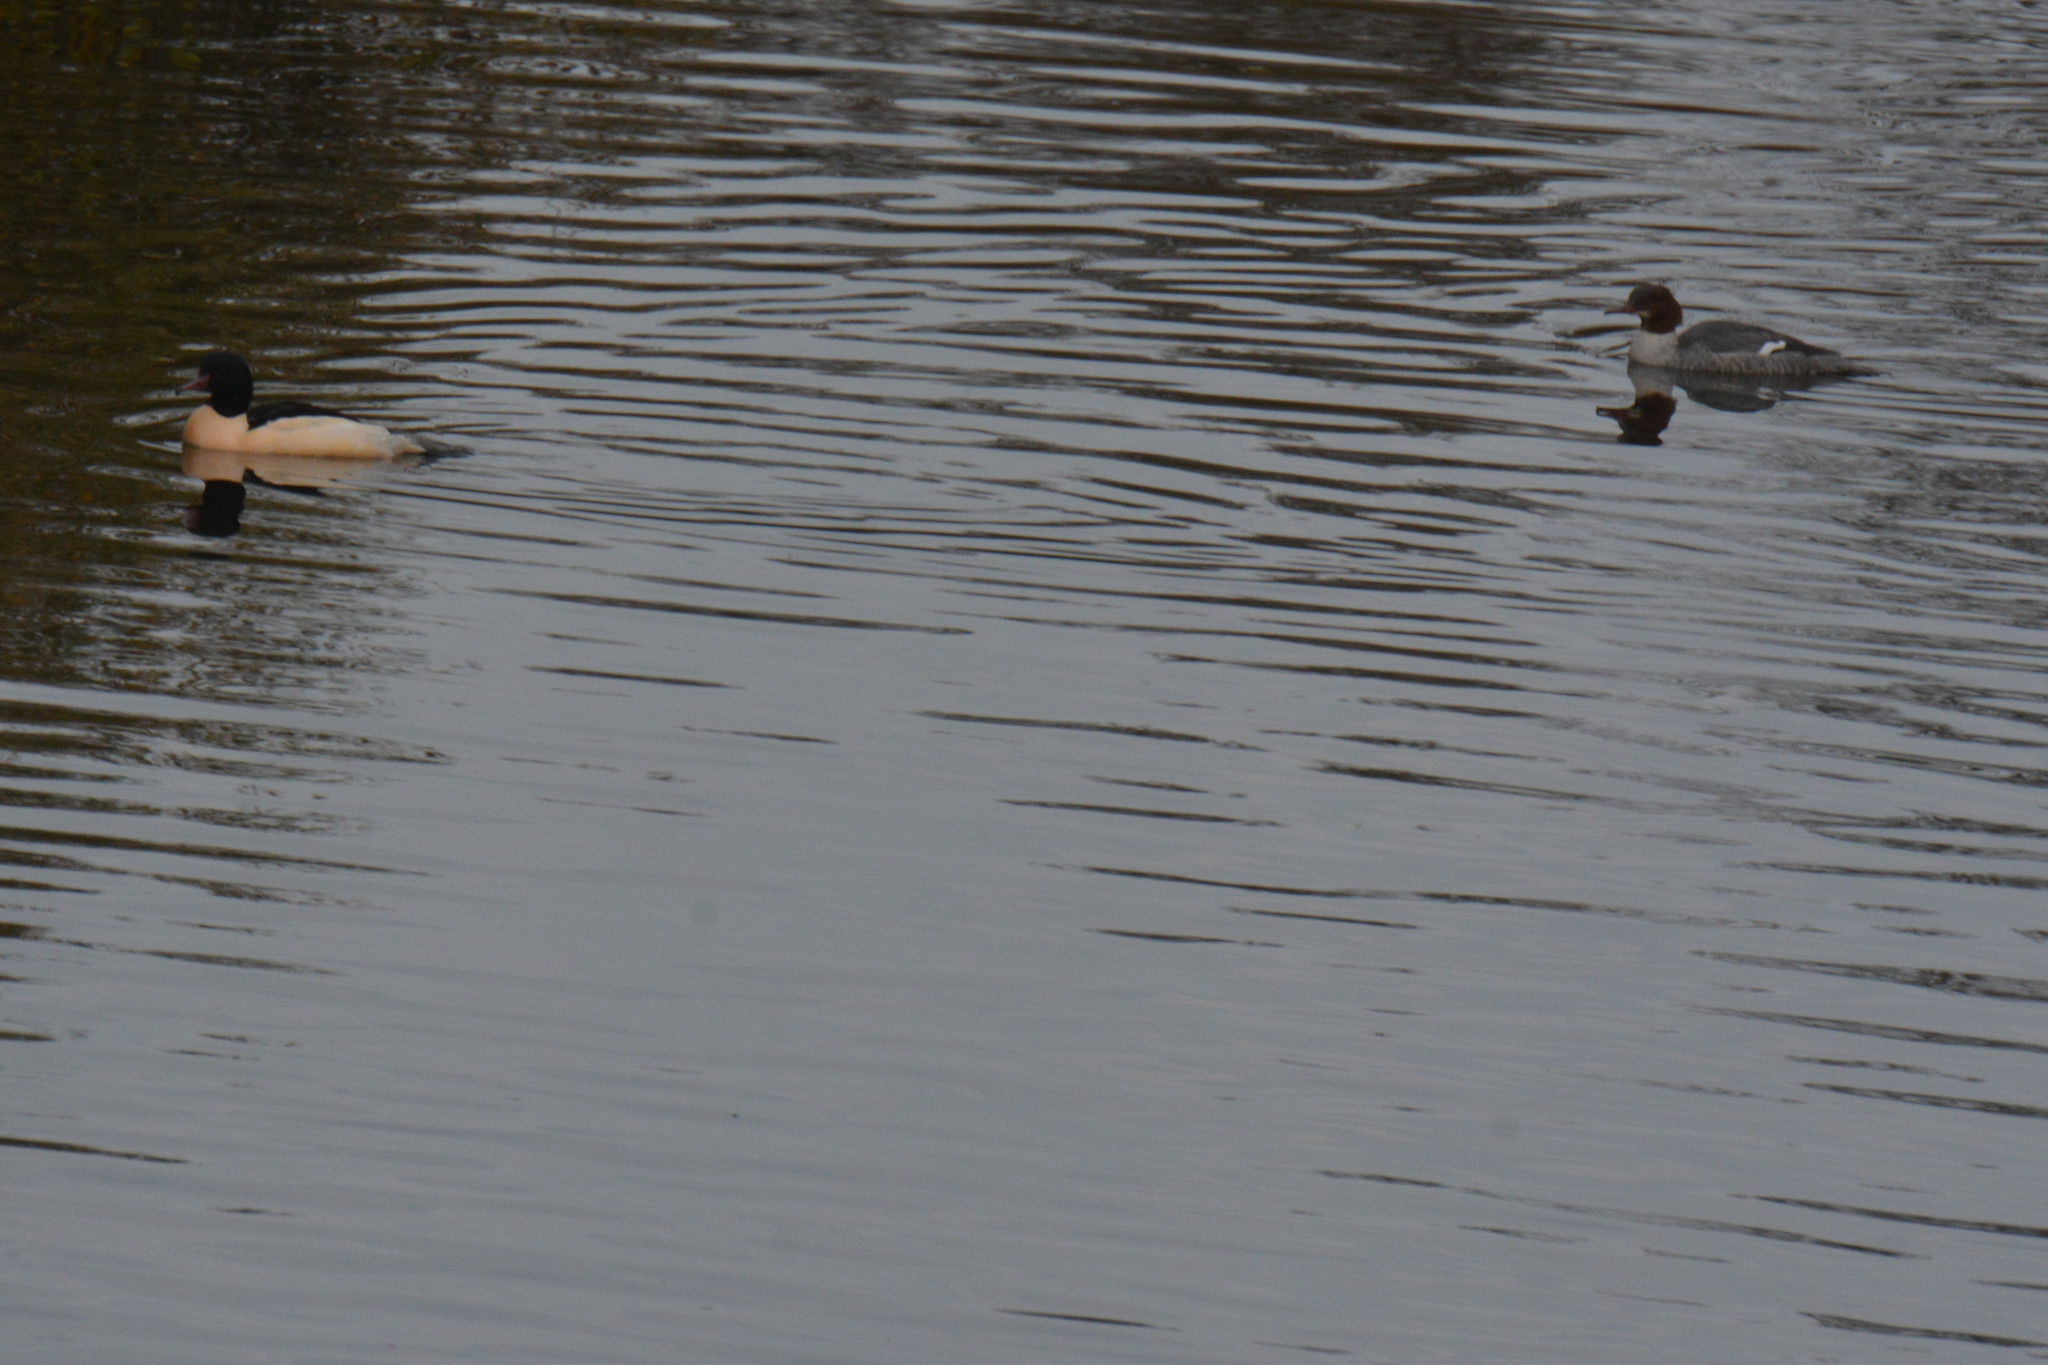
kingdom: Animalia
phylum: Chordata
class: Aves
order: Anseriformes
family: Anatidae
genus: Mergus
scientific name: Mergus merganser
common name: Common merganser
